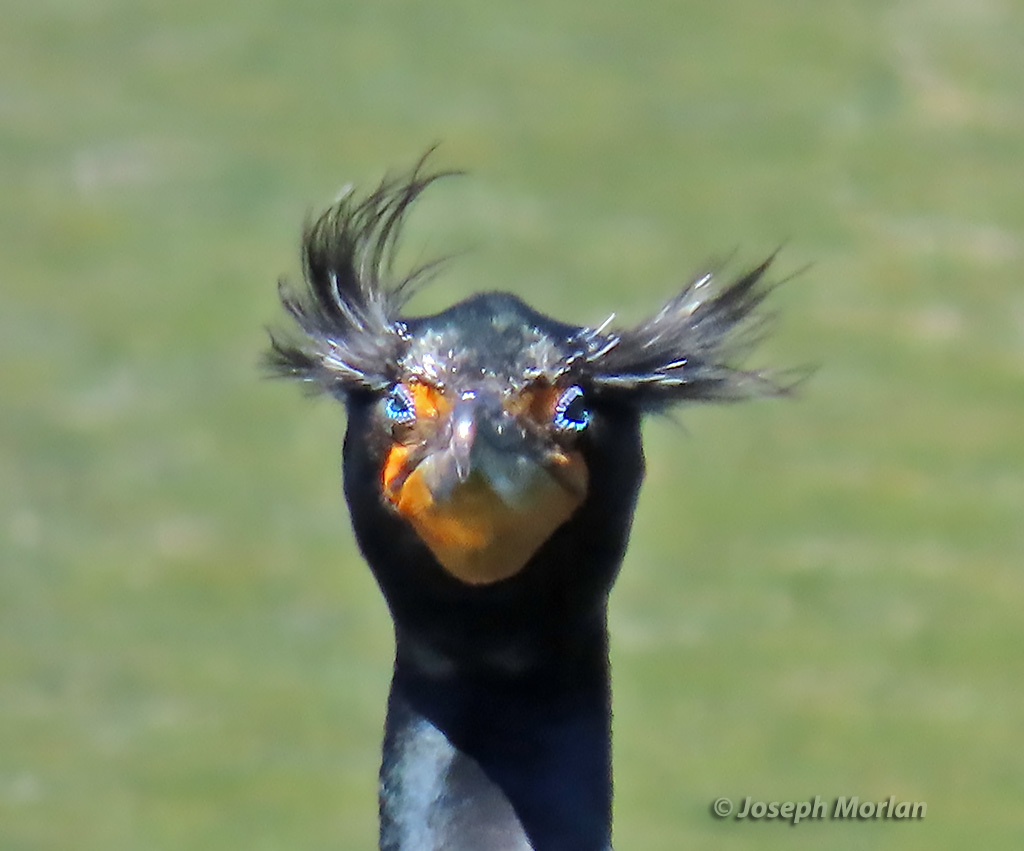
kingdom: Animalia
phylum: Chordata
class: Aves
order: Suliformes
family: Phalacrocoracidae
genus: Phalacrocorax
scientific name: Phalacrocorax auritus
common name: Double-crested cormorant
